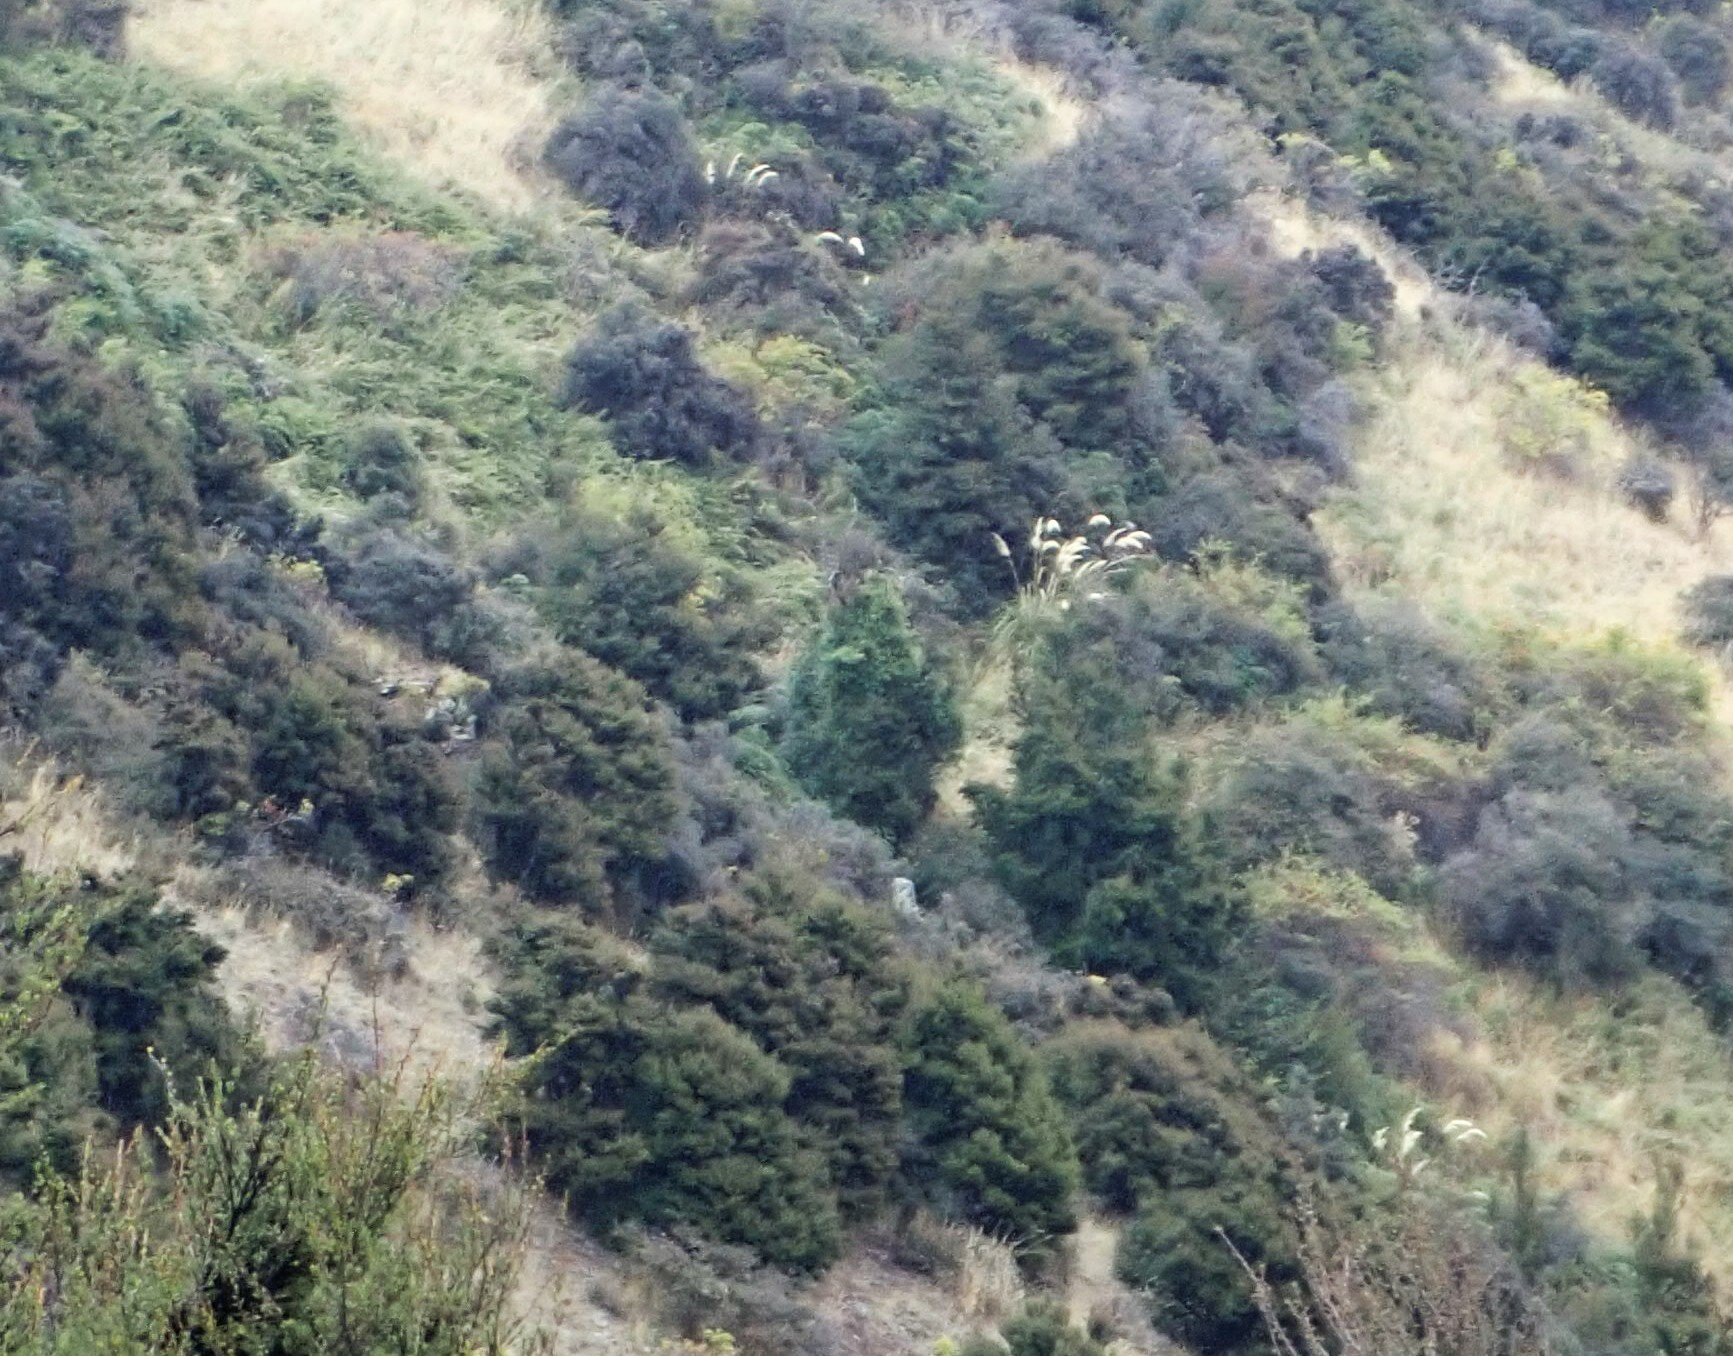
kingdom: Plantae
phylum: Tracheophyta
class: Liliopsida
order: Poales
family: Poaceae
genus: Austroderia
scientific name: Austroderia richardii
